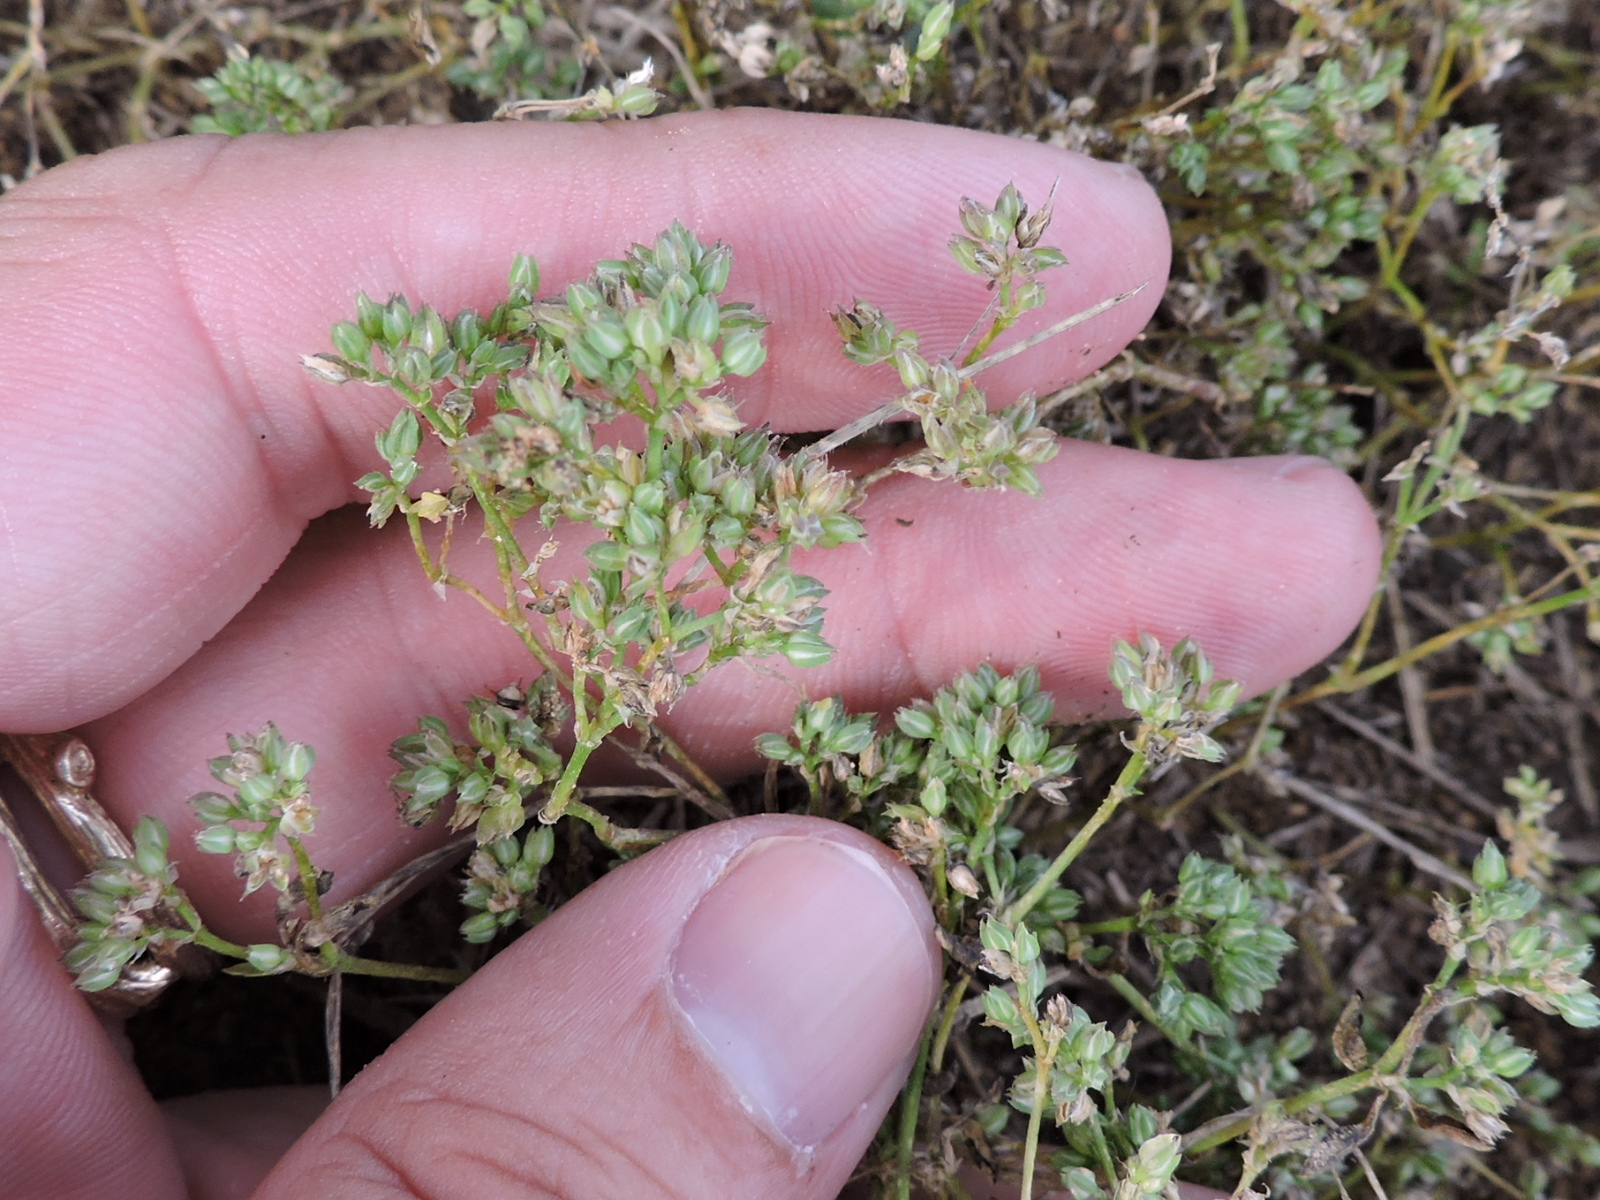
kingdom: Plantae
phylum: Tracheophyta
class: Magnoliopsida
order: Caryophyllales
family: Caryophyllaceae
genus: Polycarpon
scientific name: Polycarpon tetraphyllum
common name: Four-leaved all-seed
